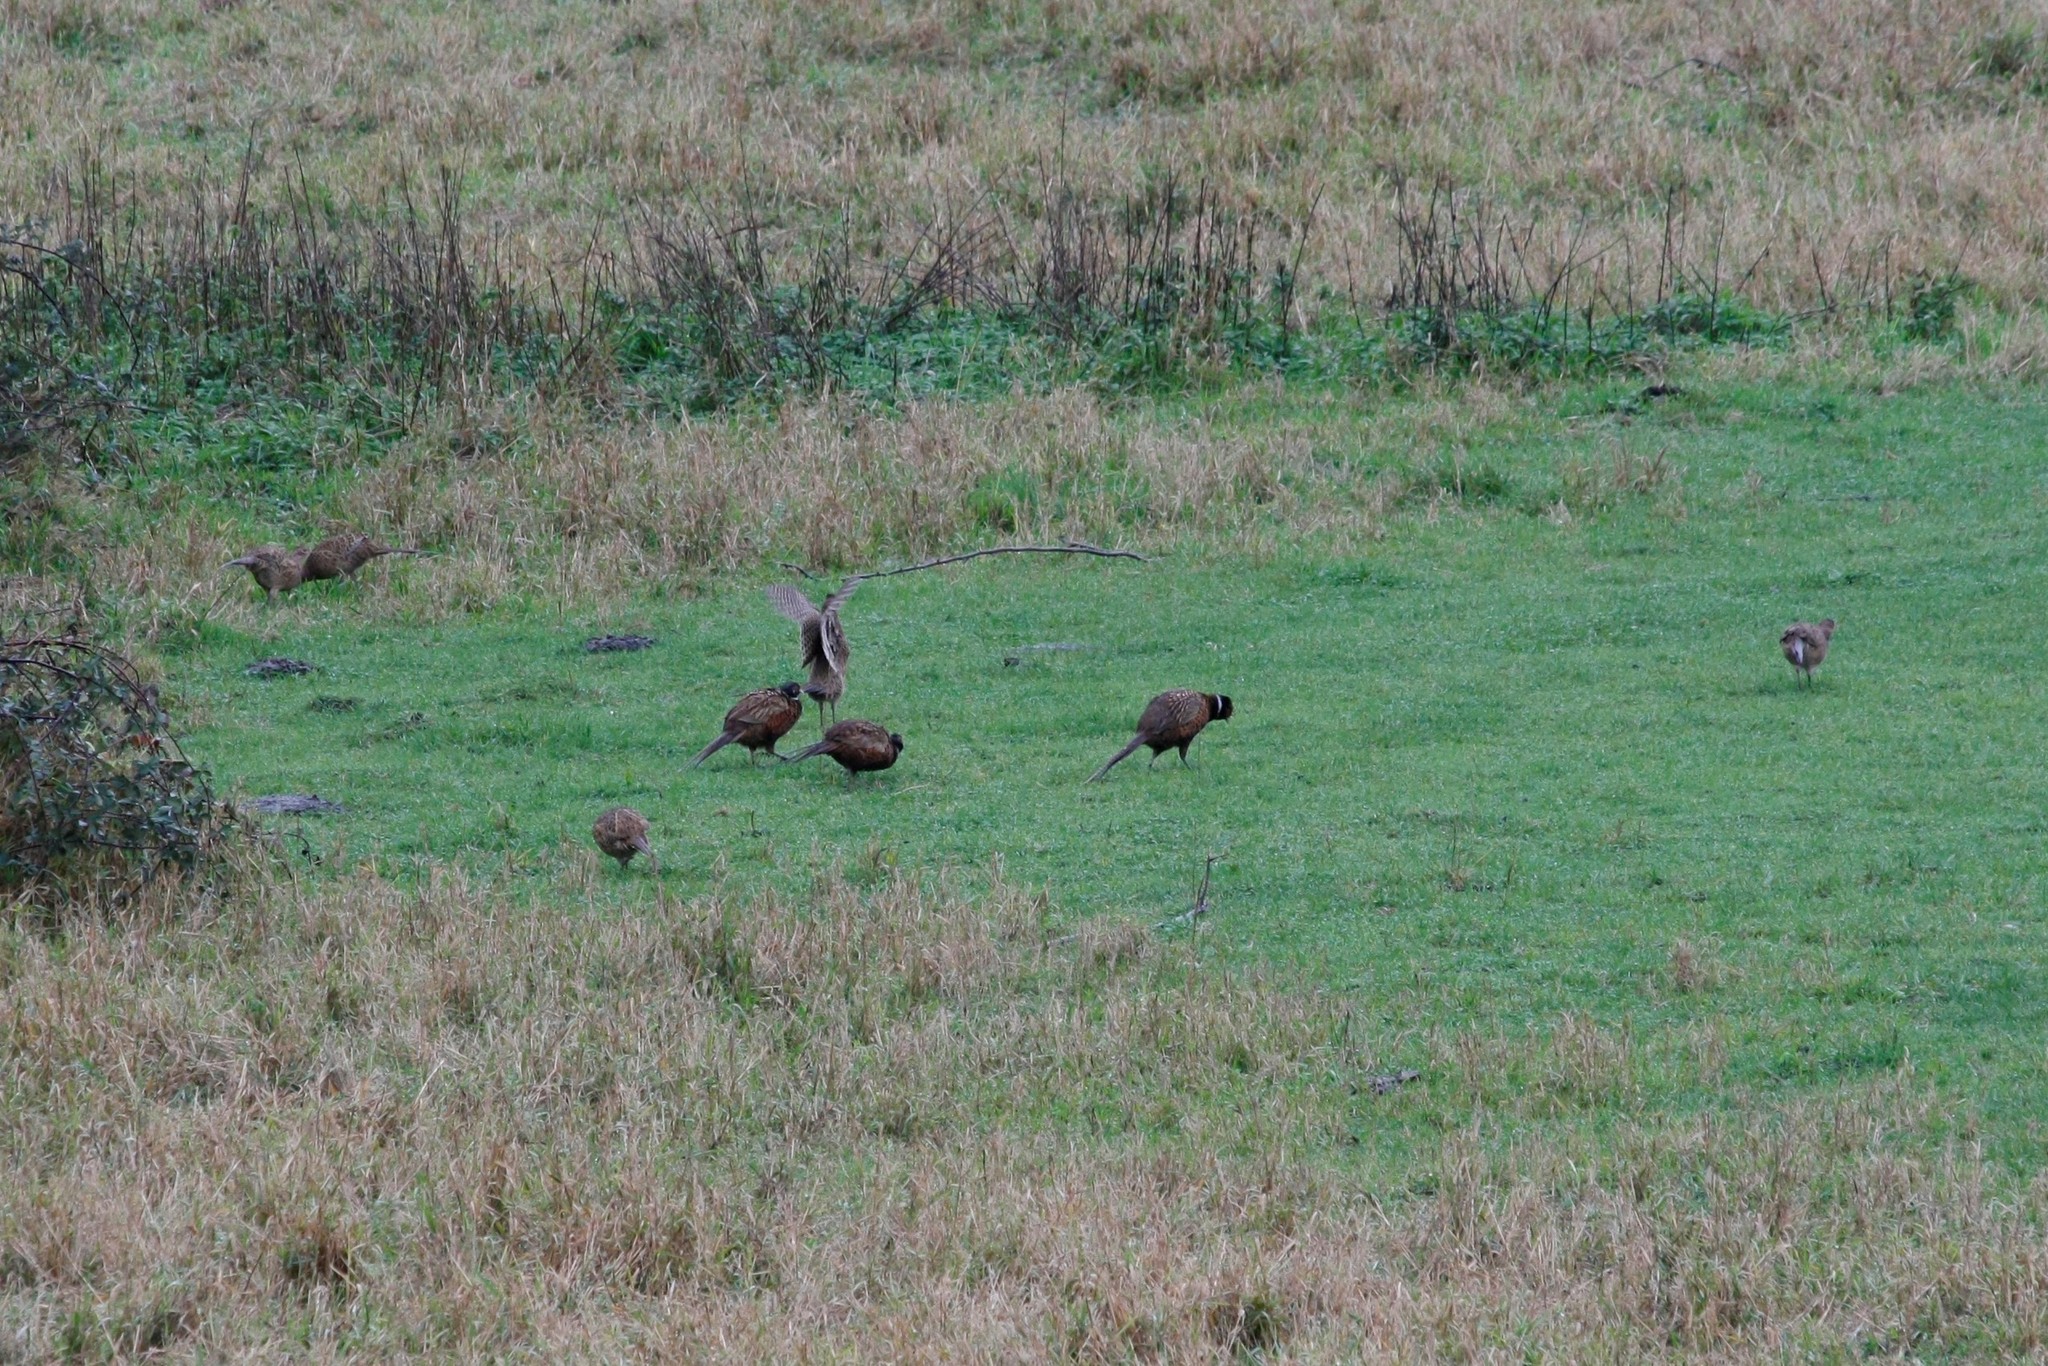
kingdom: Animalia
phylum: Chordata
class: Aves
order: Galliformes
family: Phasianidae
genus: Phasianus
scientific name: Phasianus colchicus
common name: Common pheasant
